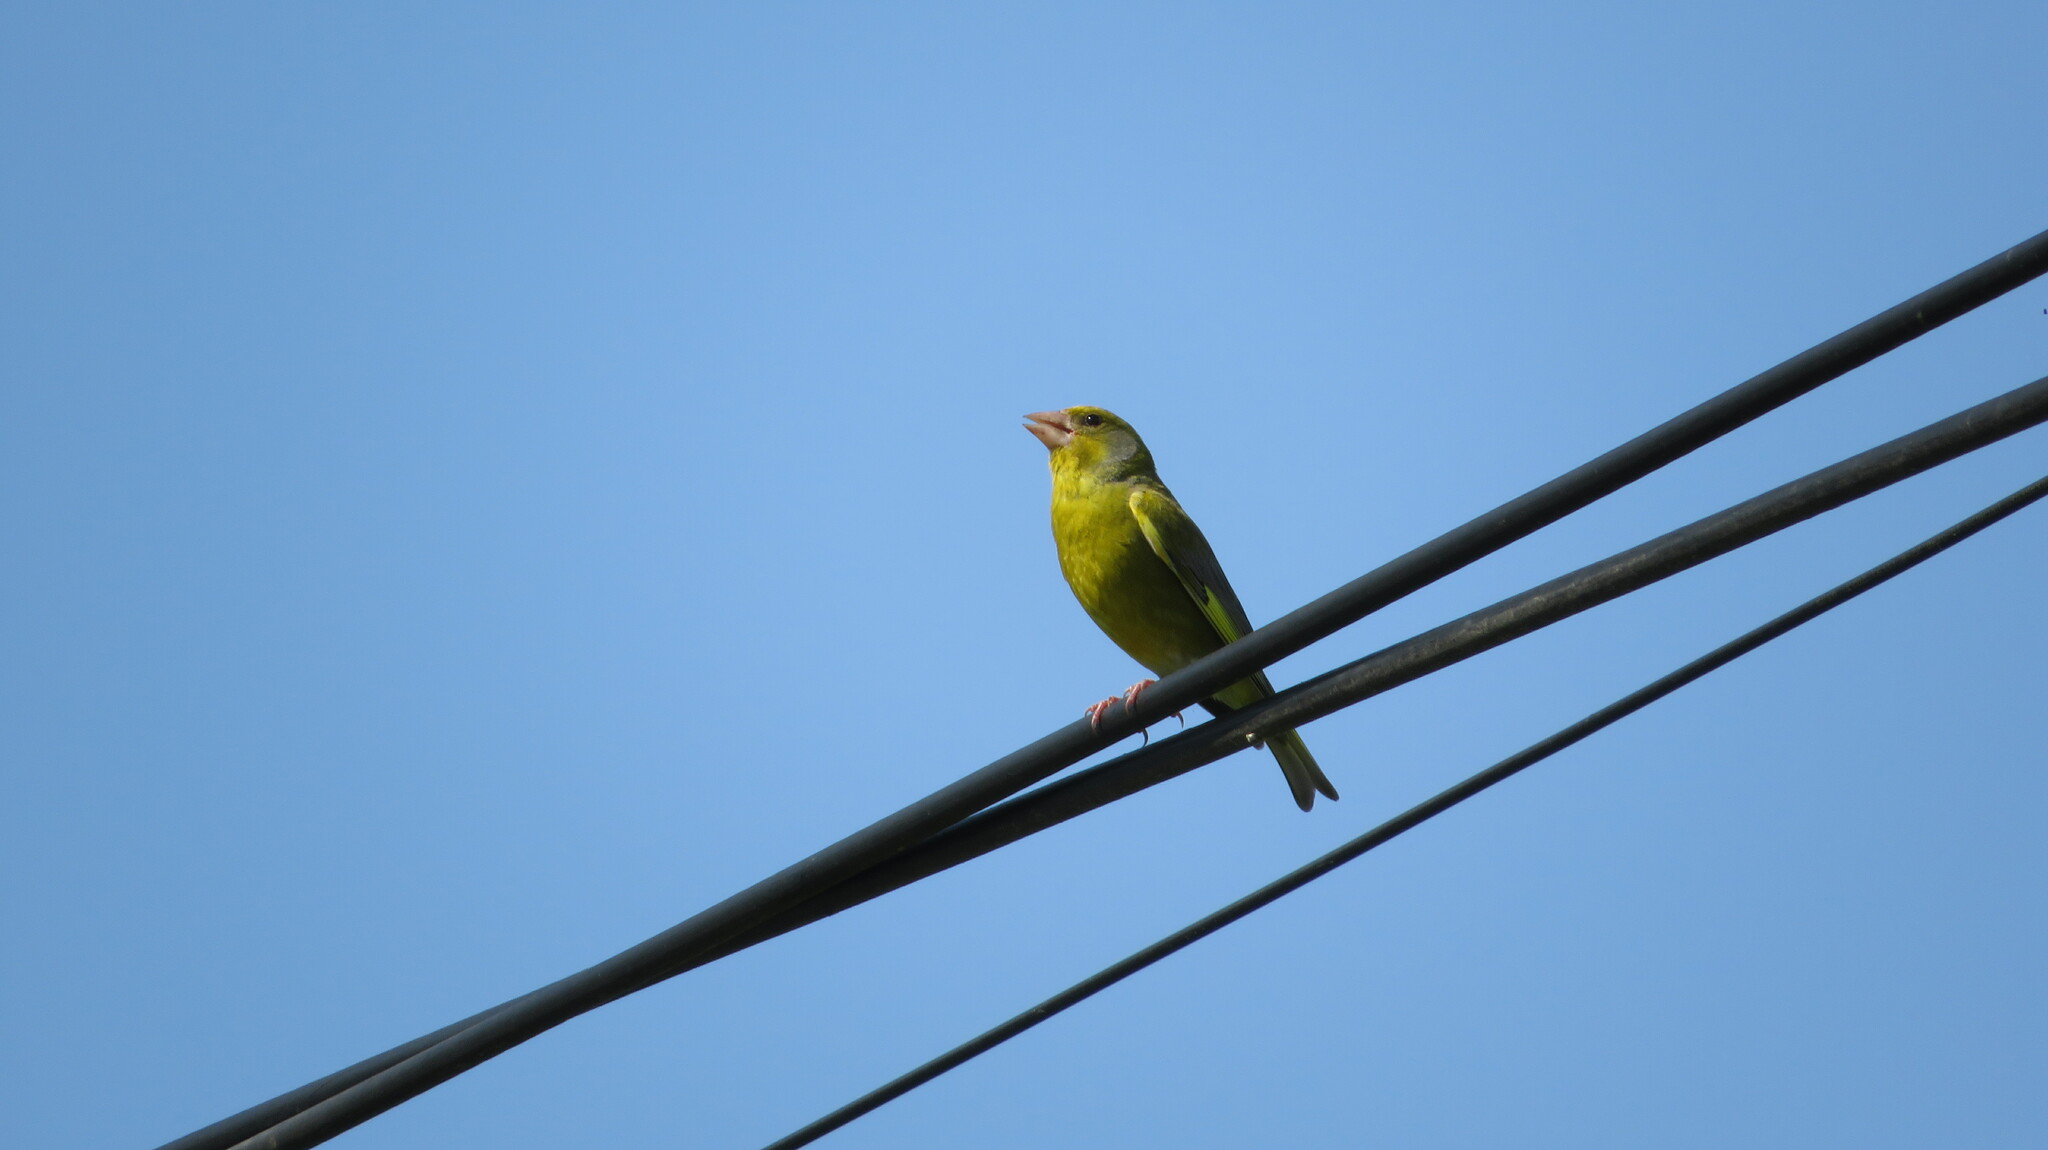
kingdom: Plantae
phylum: Tracheophyta
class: Liliopsida
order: Poales
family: Poaceae
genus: Chloris
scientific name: Chloris chloris
